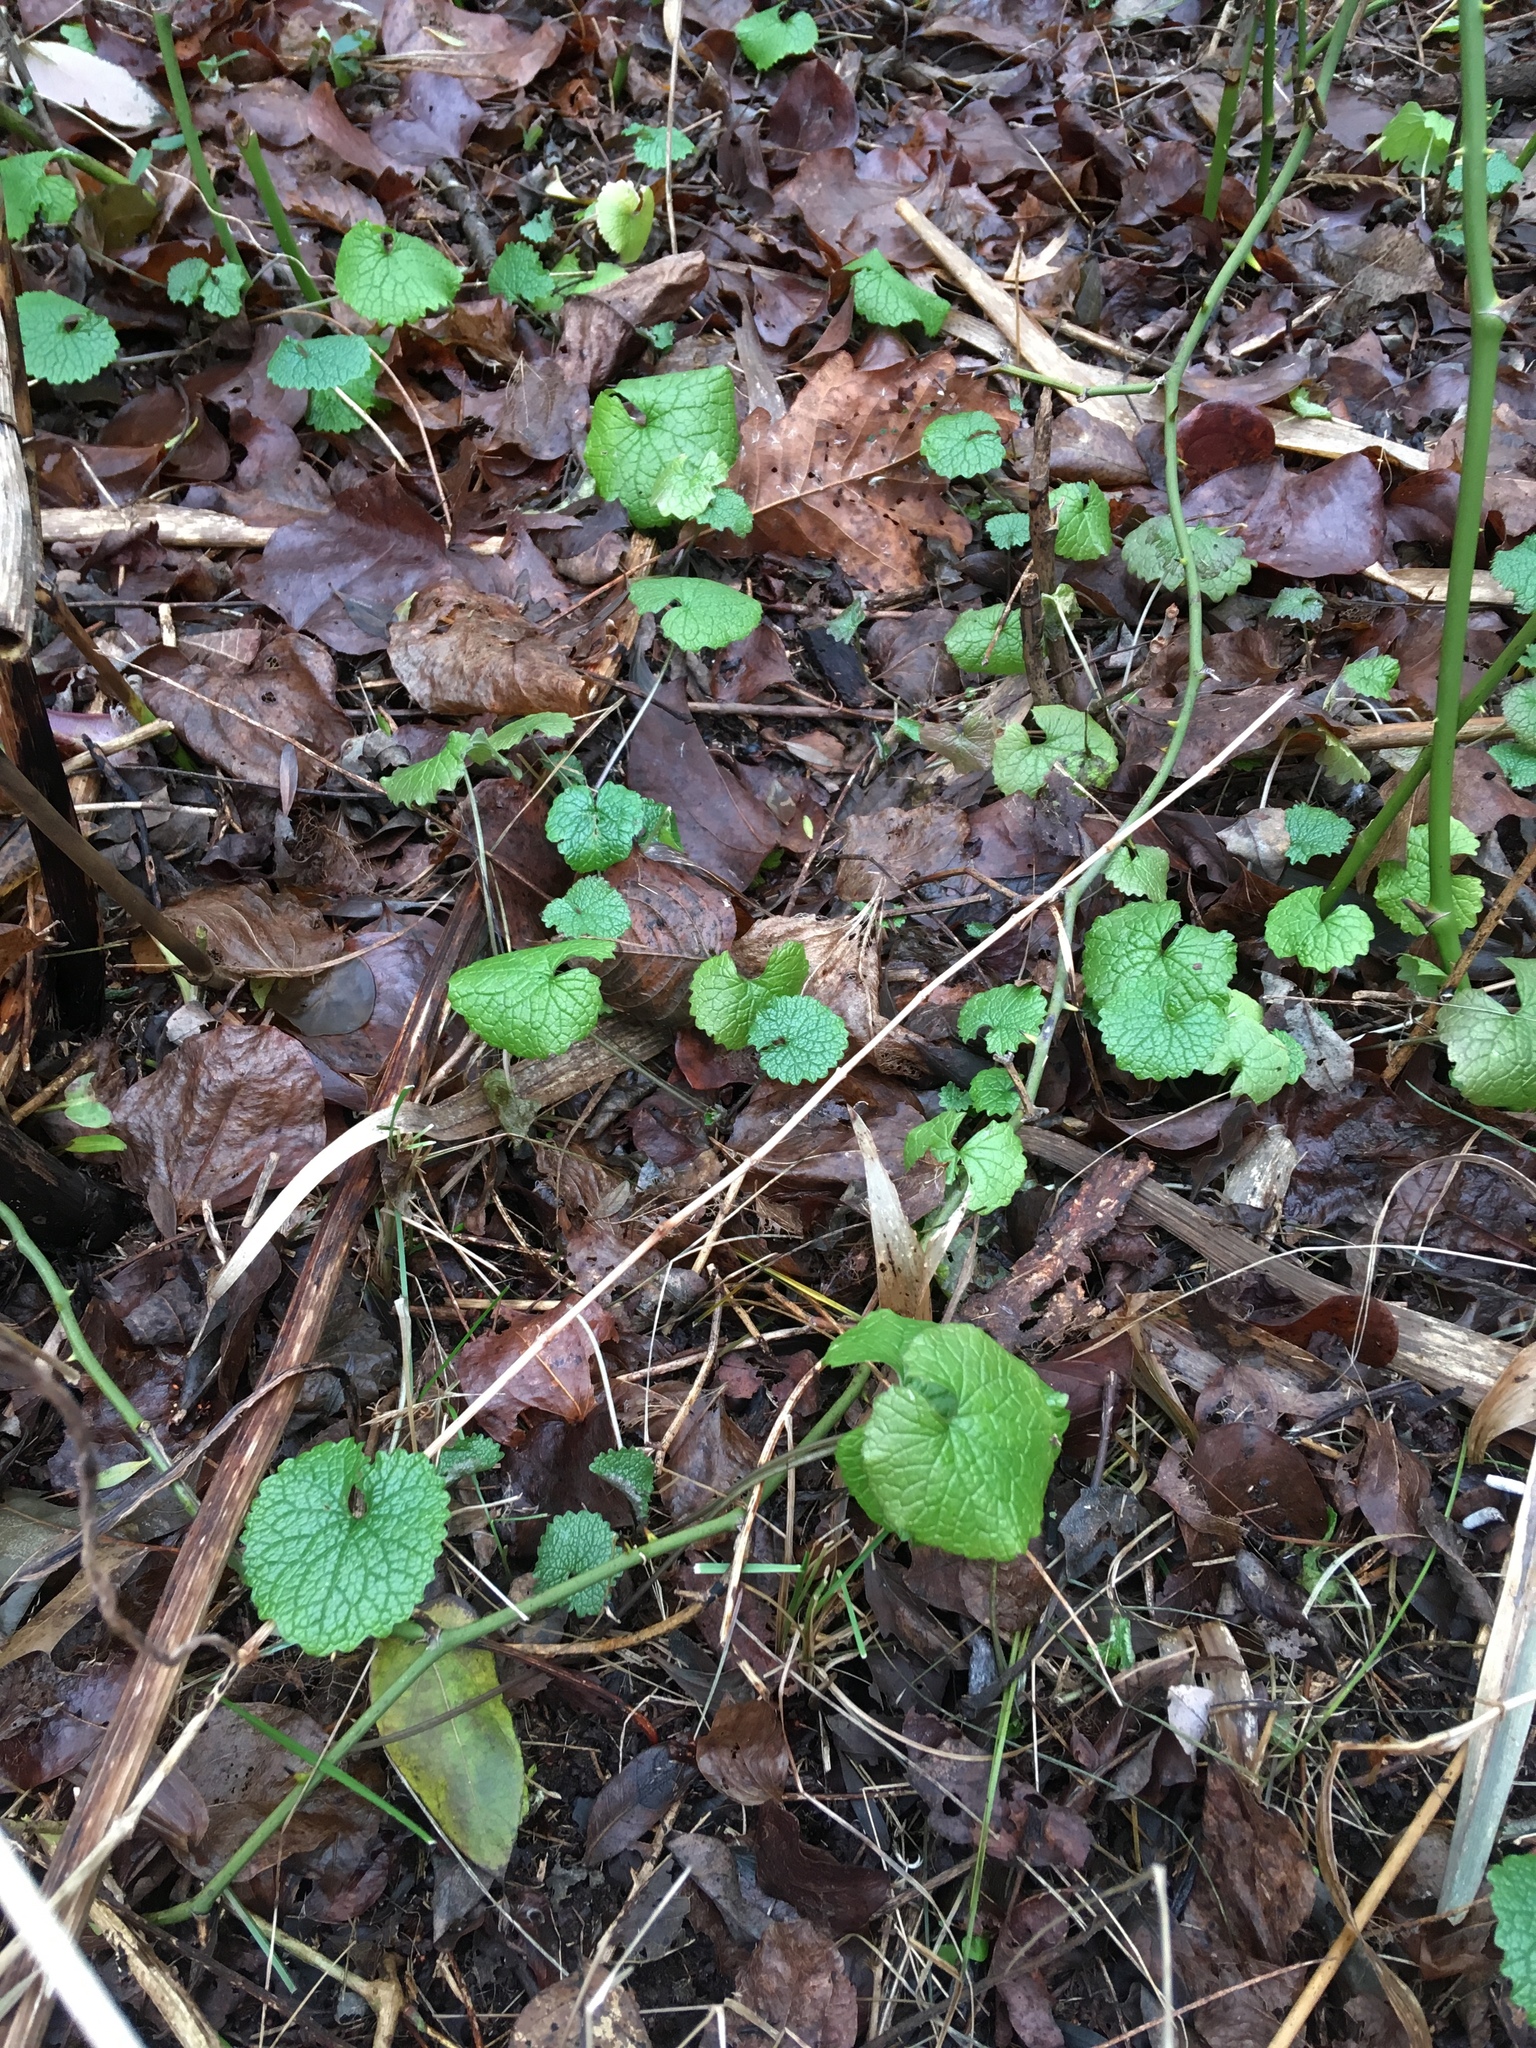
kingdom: Plantae
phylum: Tracheophyta
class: Magnoliopsida
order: Brassicales
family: Brassicaceae
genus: Alliaria
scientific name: Alliaria petiolata
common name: Garlic mustard
